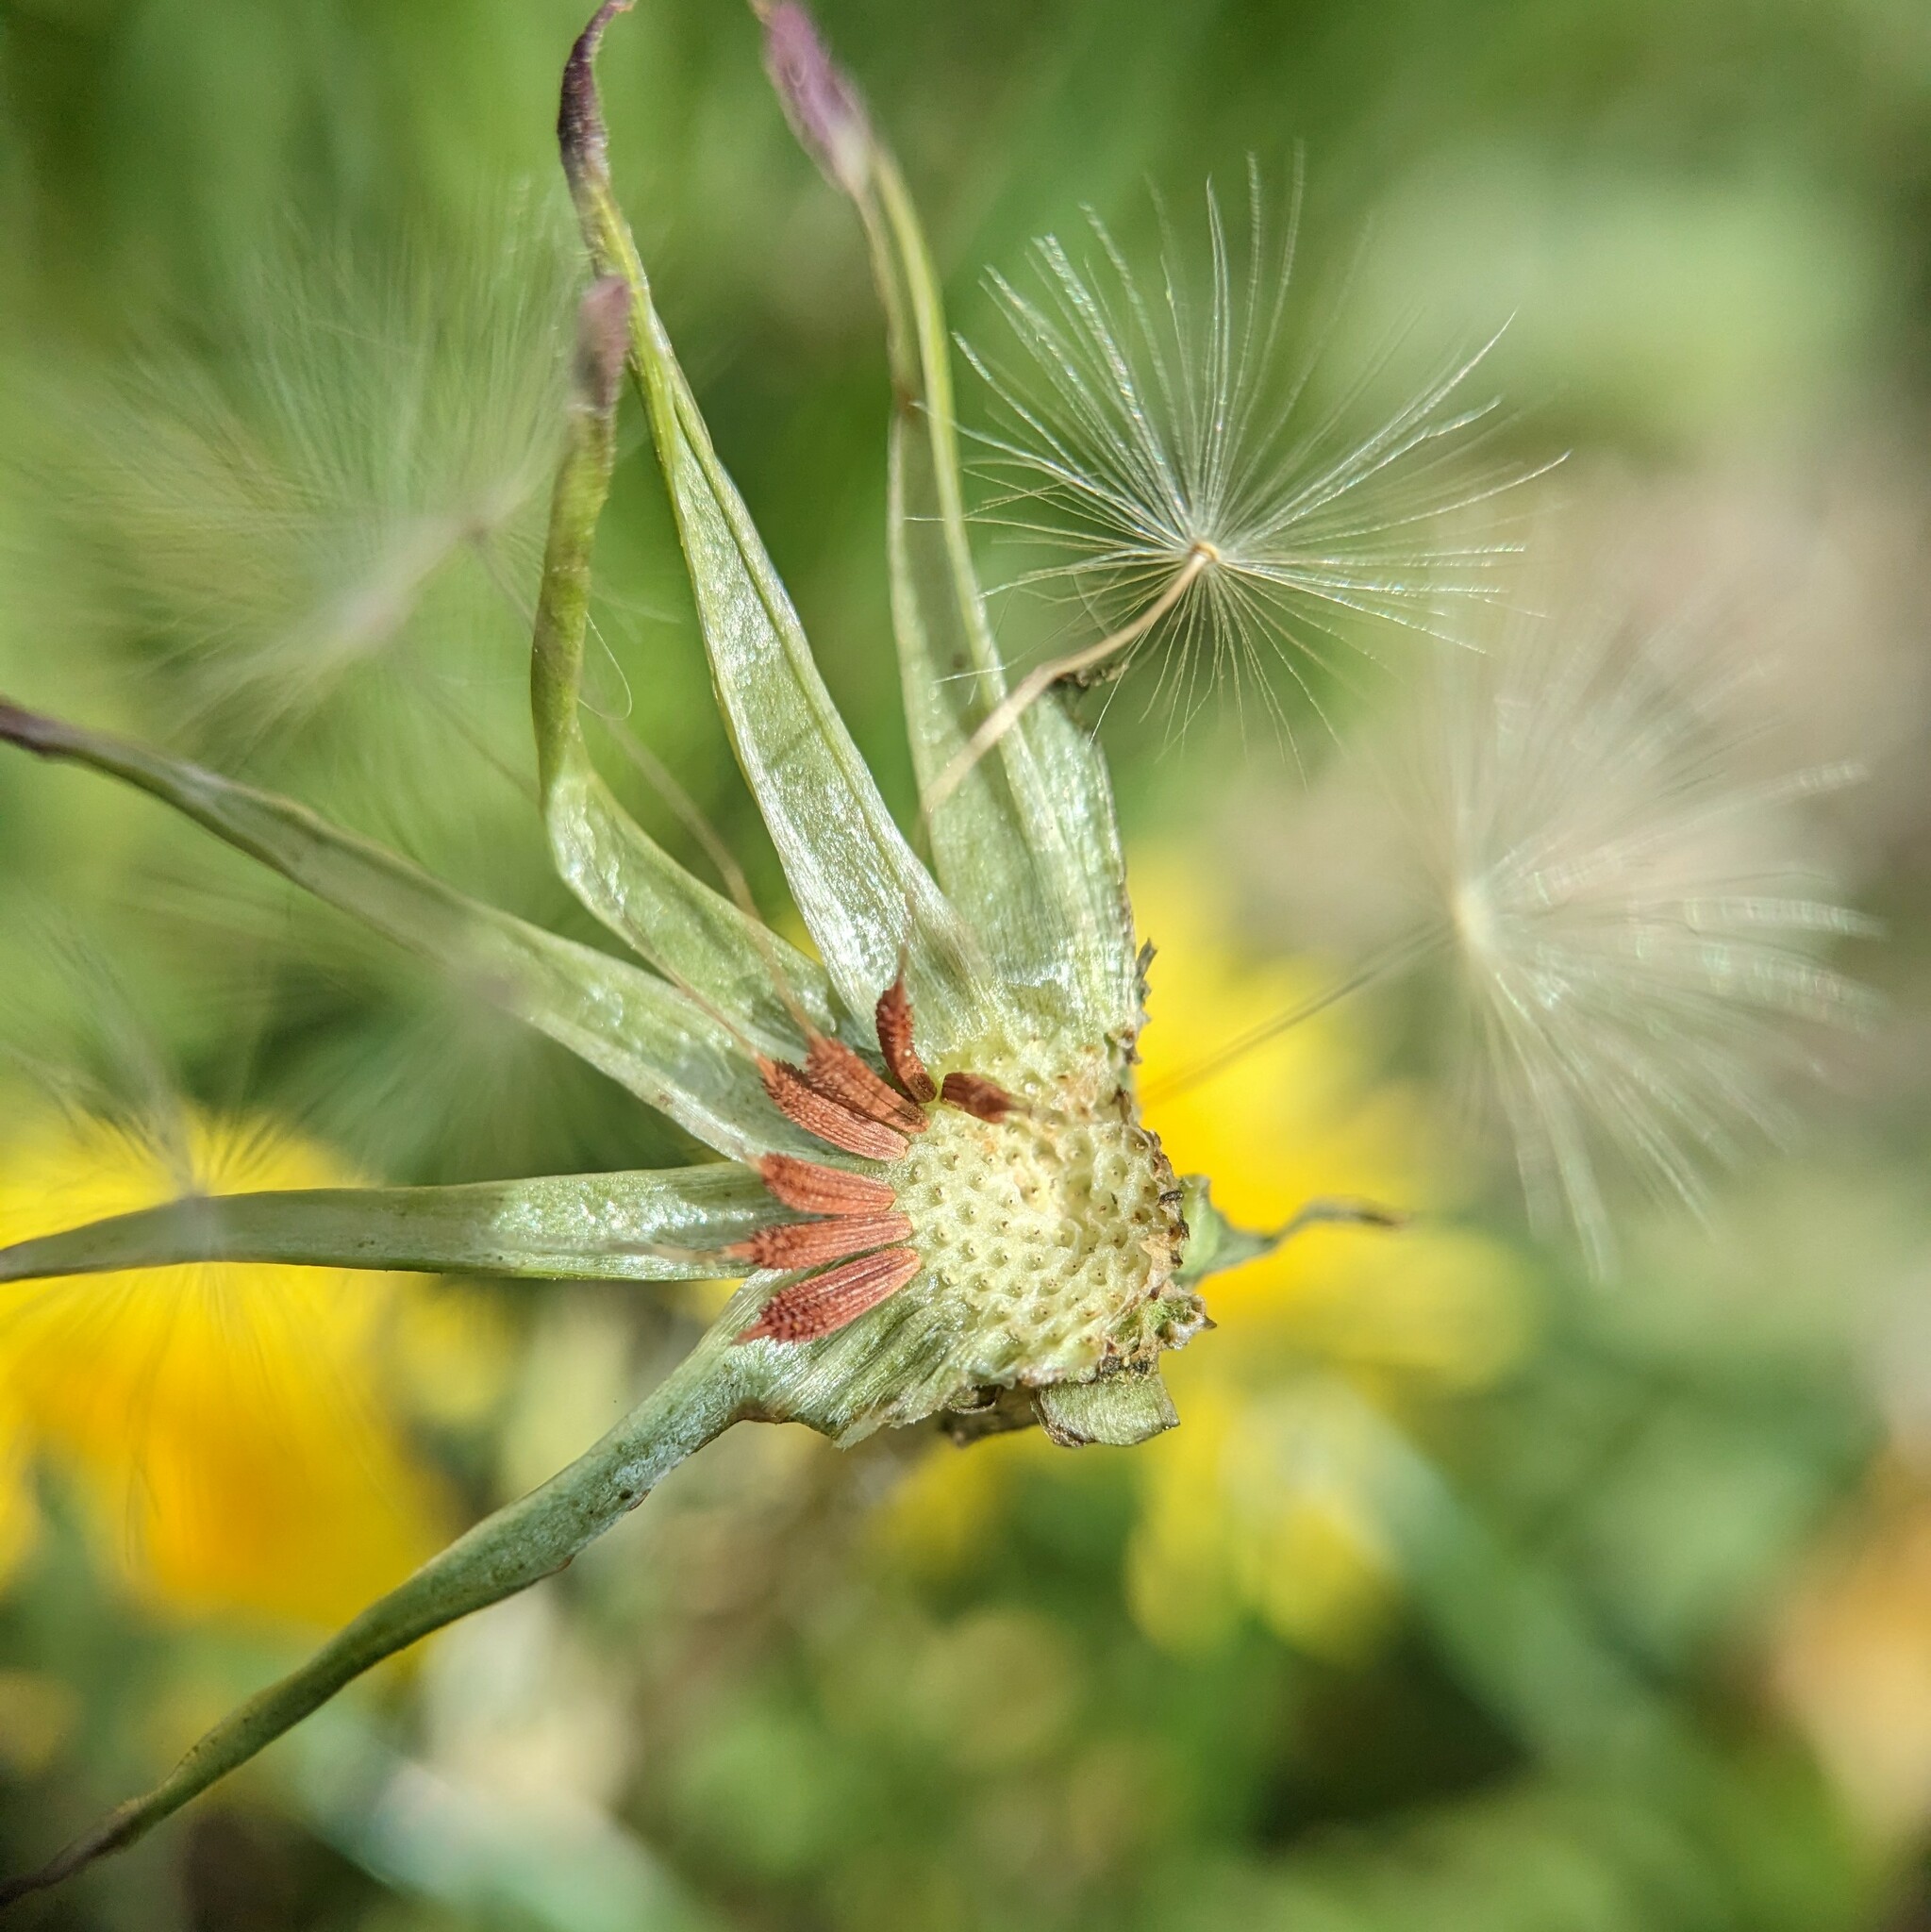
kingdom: Plantae
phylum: Tracheophyta
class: Magnoliopsida
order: Asterales
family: Asteraceae
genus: Taraxacum
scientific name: Taraxacum erythrospermum
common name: Rock dandelion
